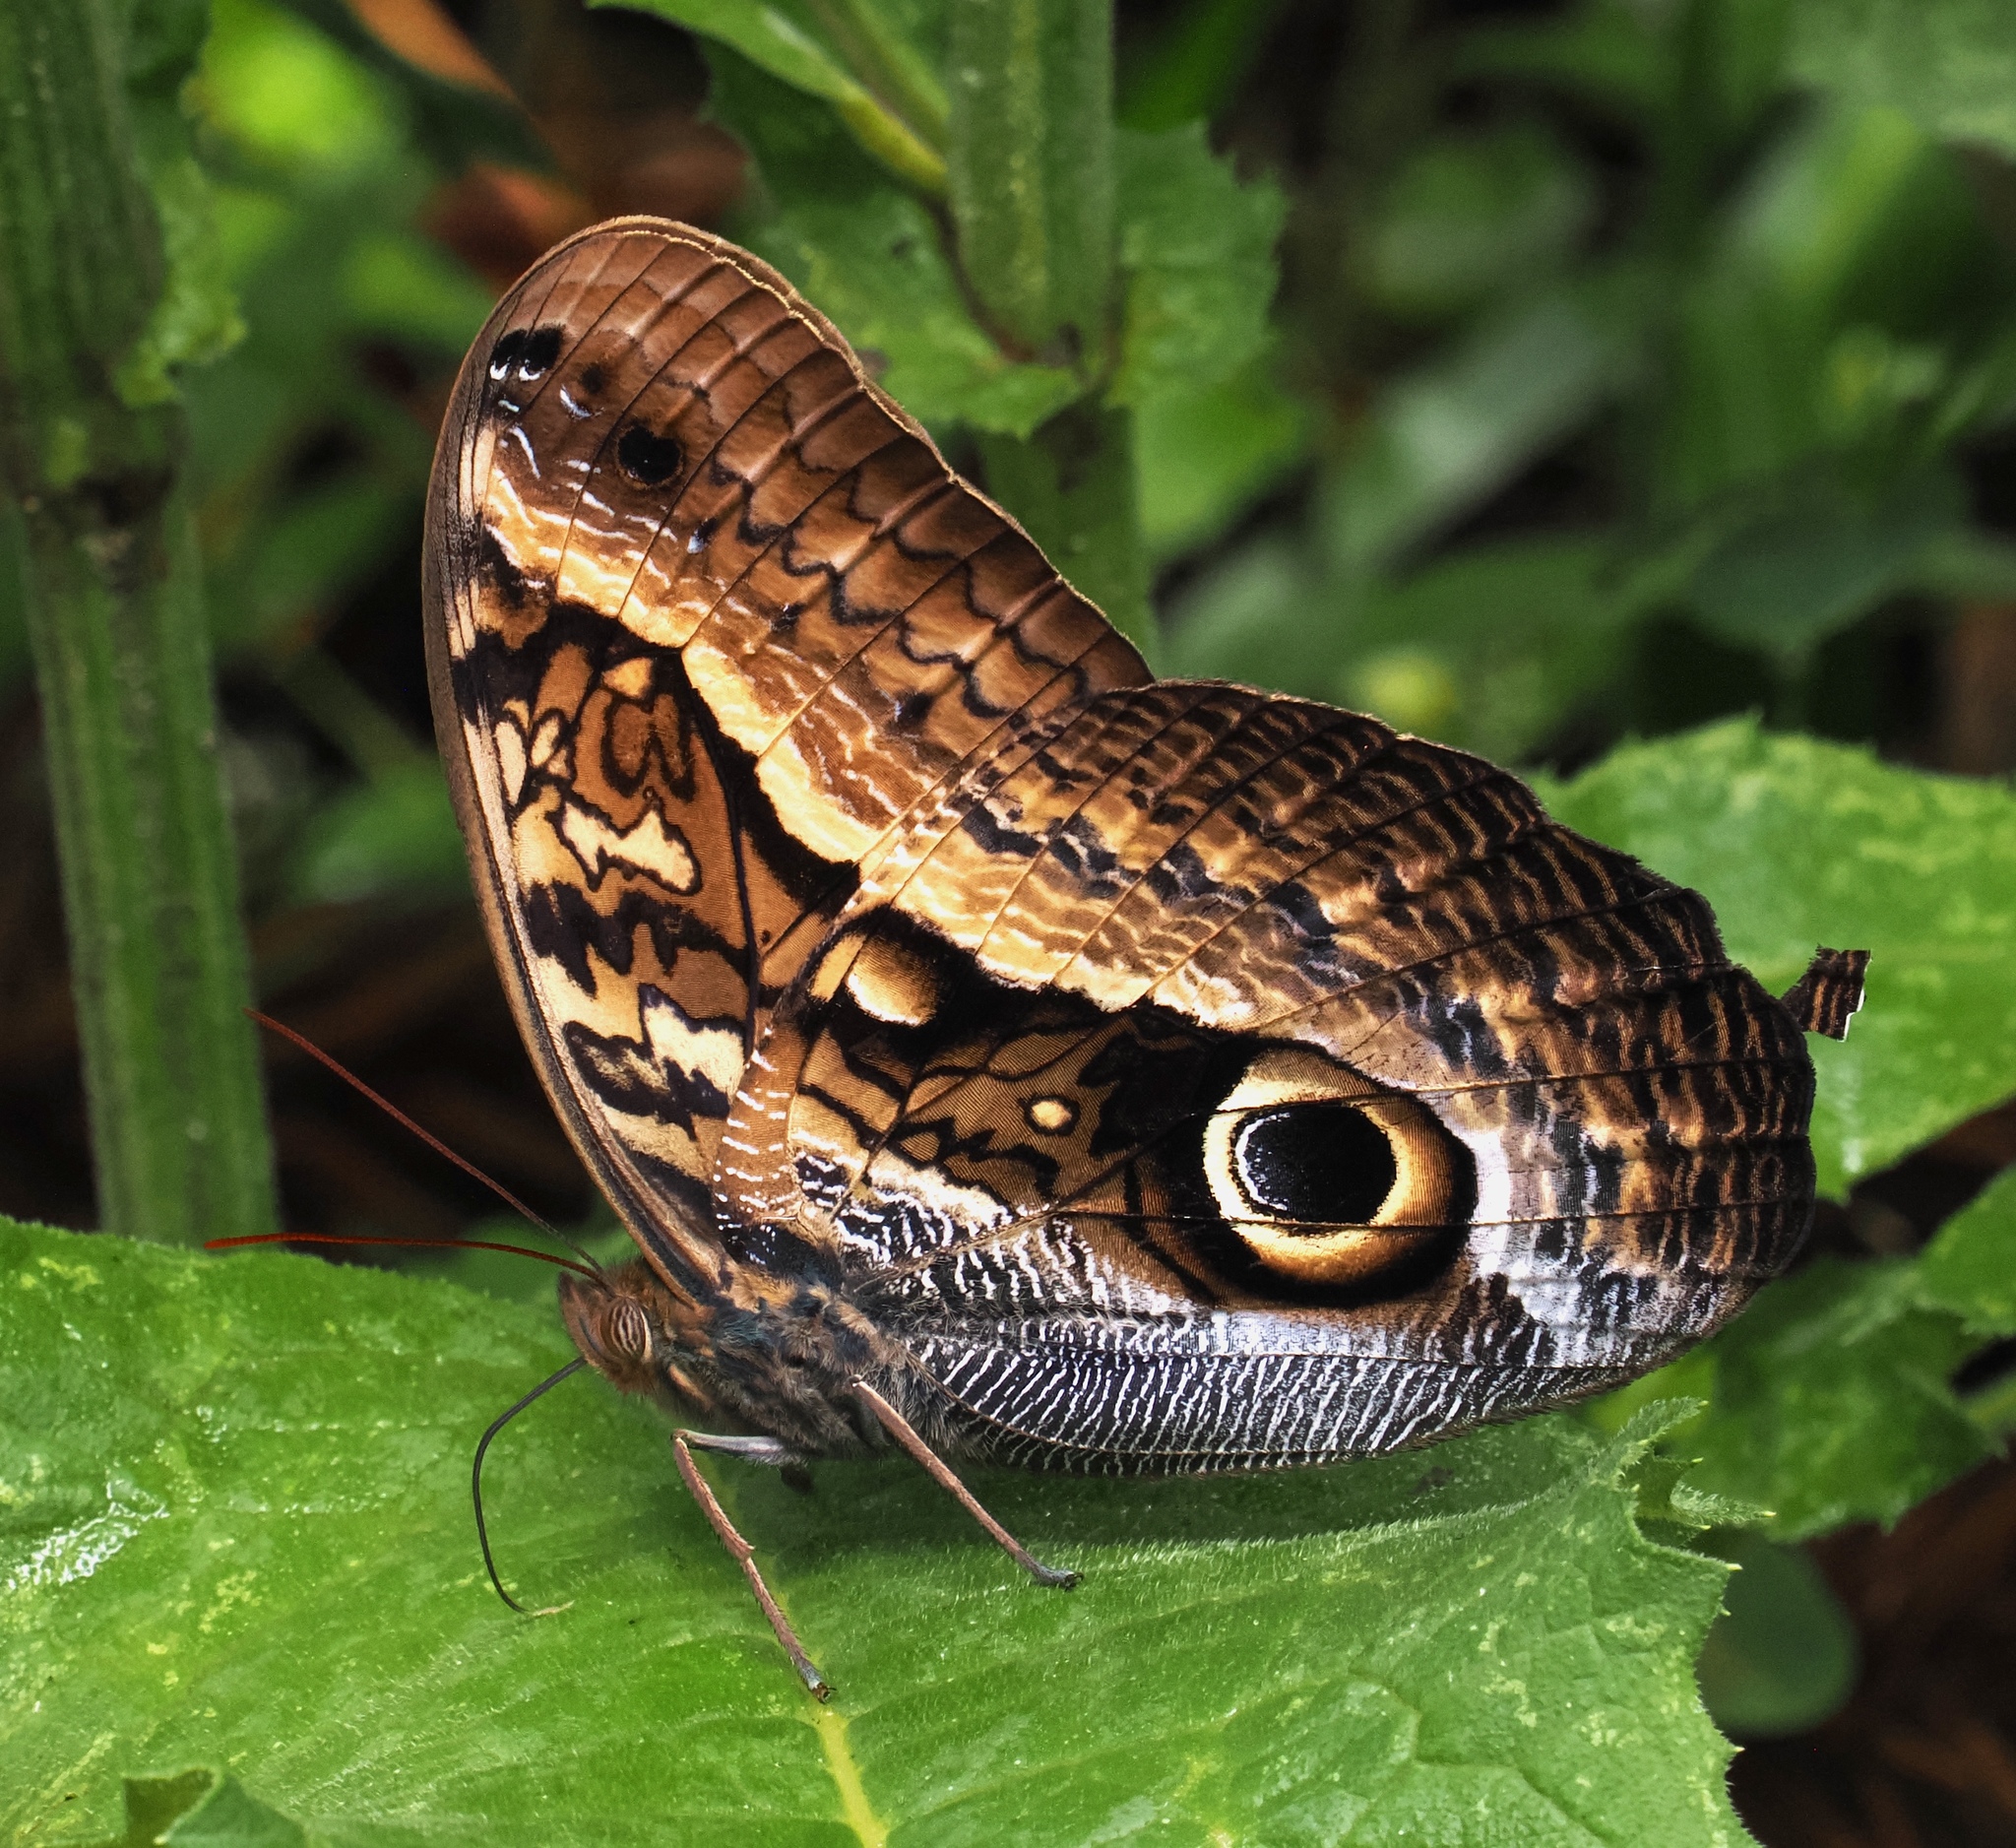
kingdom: Animalia
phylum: Arthropoda
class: Insecta
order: Lepidoptera
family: Nymphalidae
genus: Caligo
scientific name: Caligo arisbe
